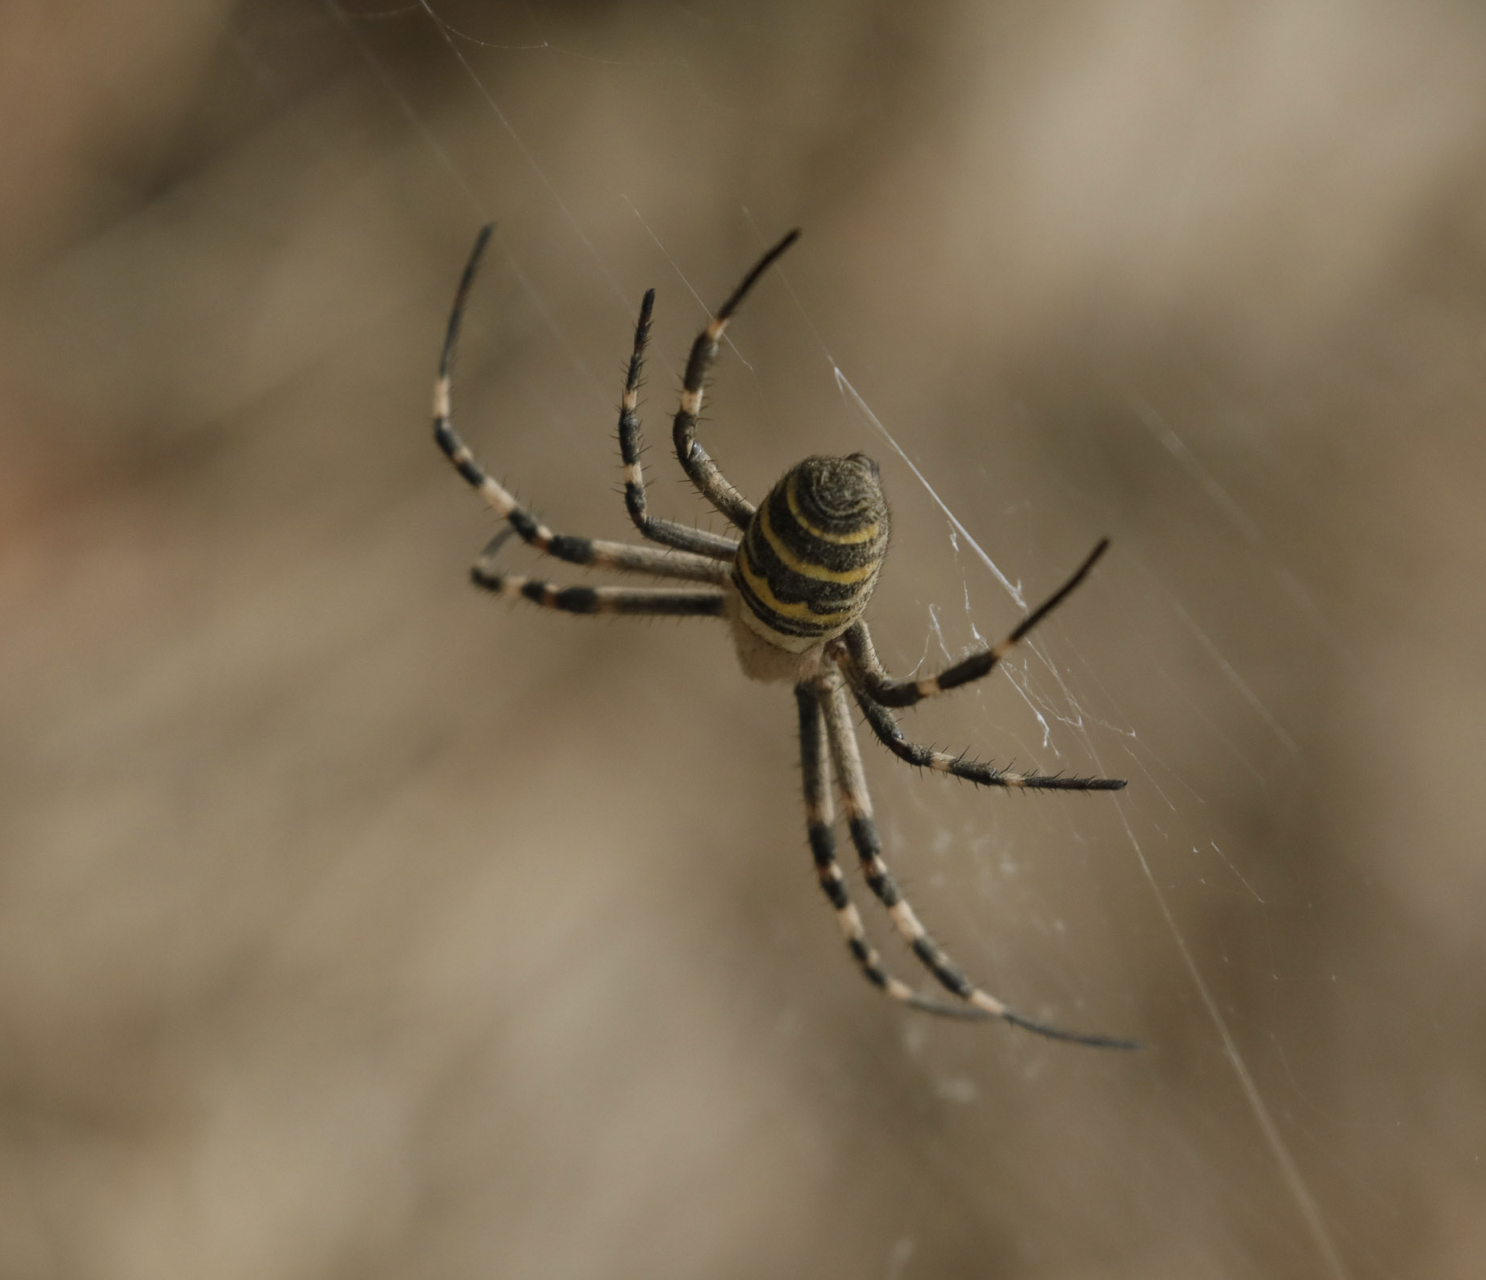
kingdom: Animalia
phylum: Arthropoda
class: Arachnida
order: Araneae
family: Araneidae
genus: Argiope
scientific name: Argiope bruennichi
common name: Wasp spider
